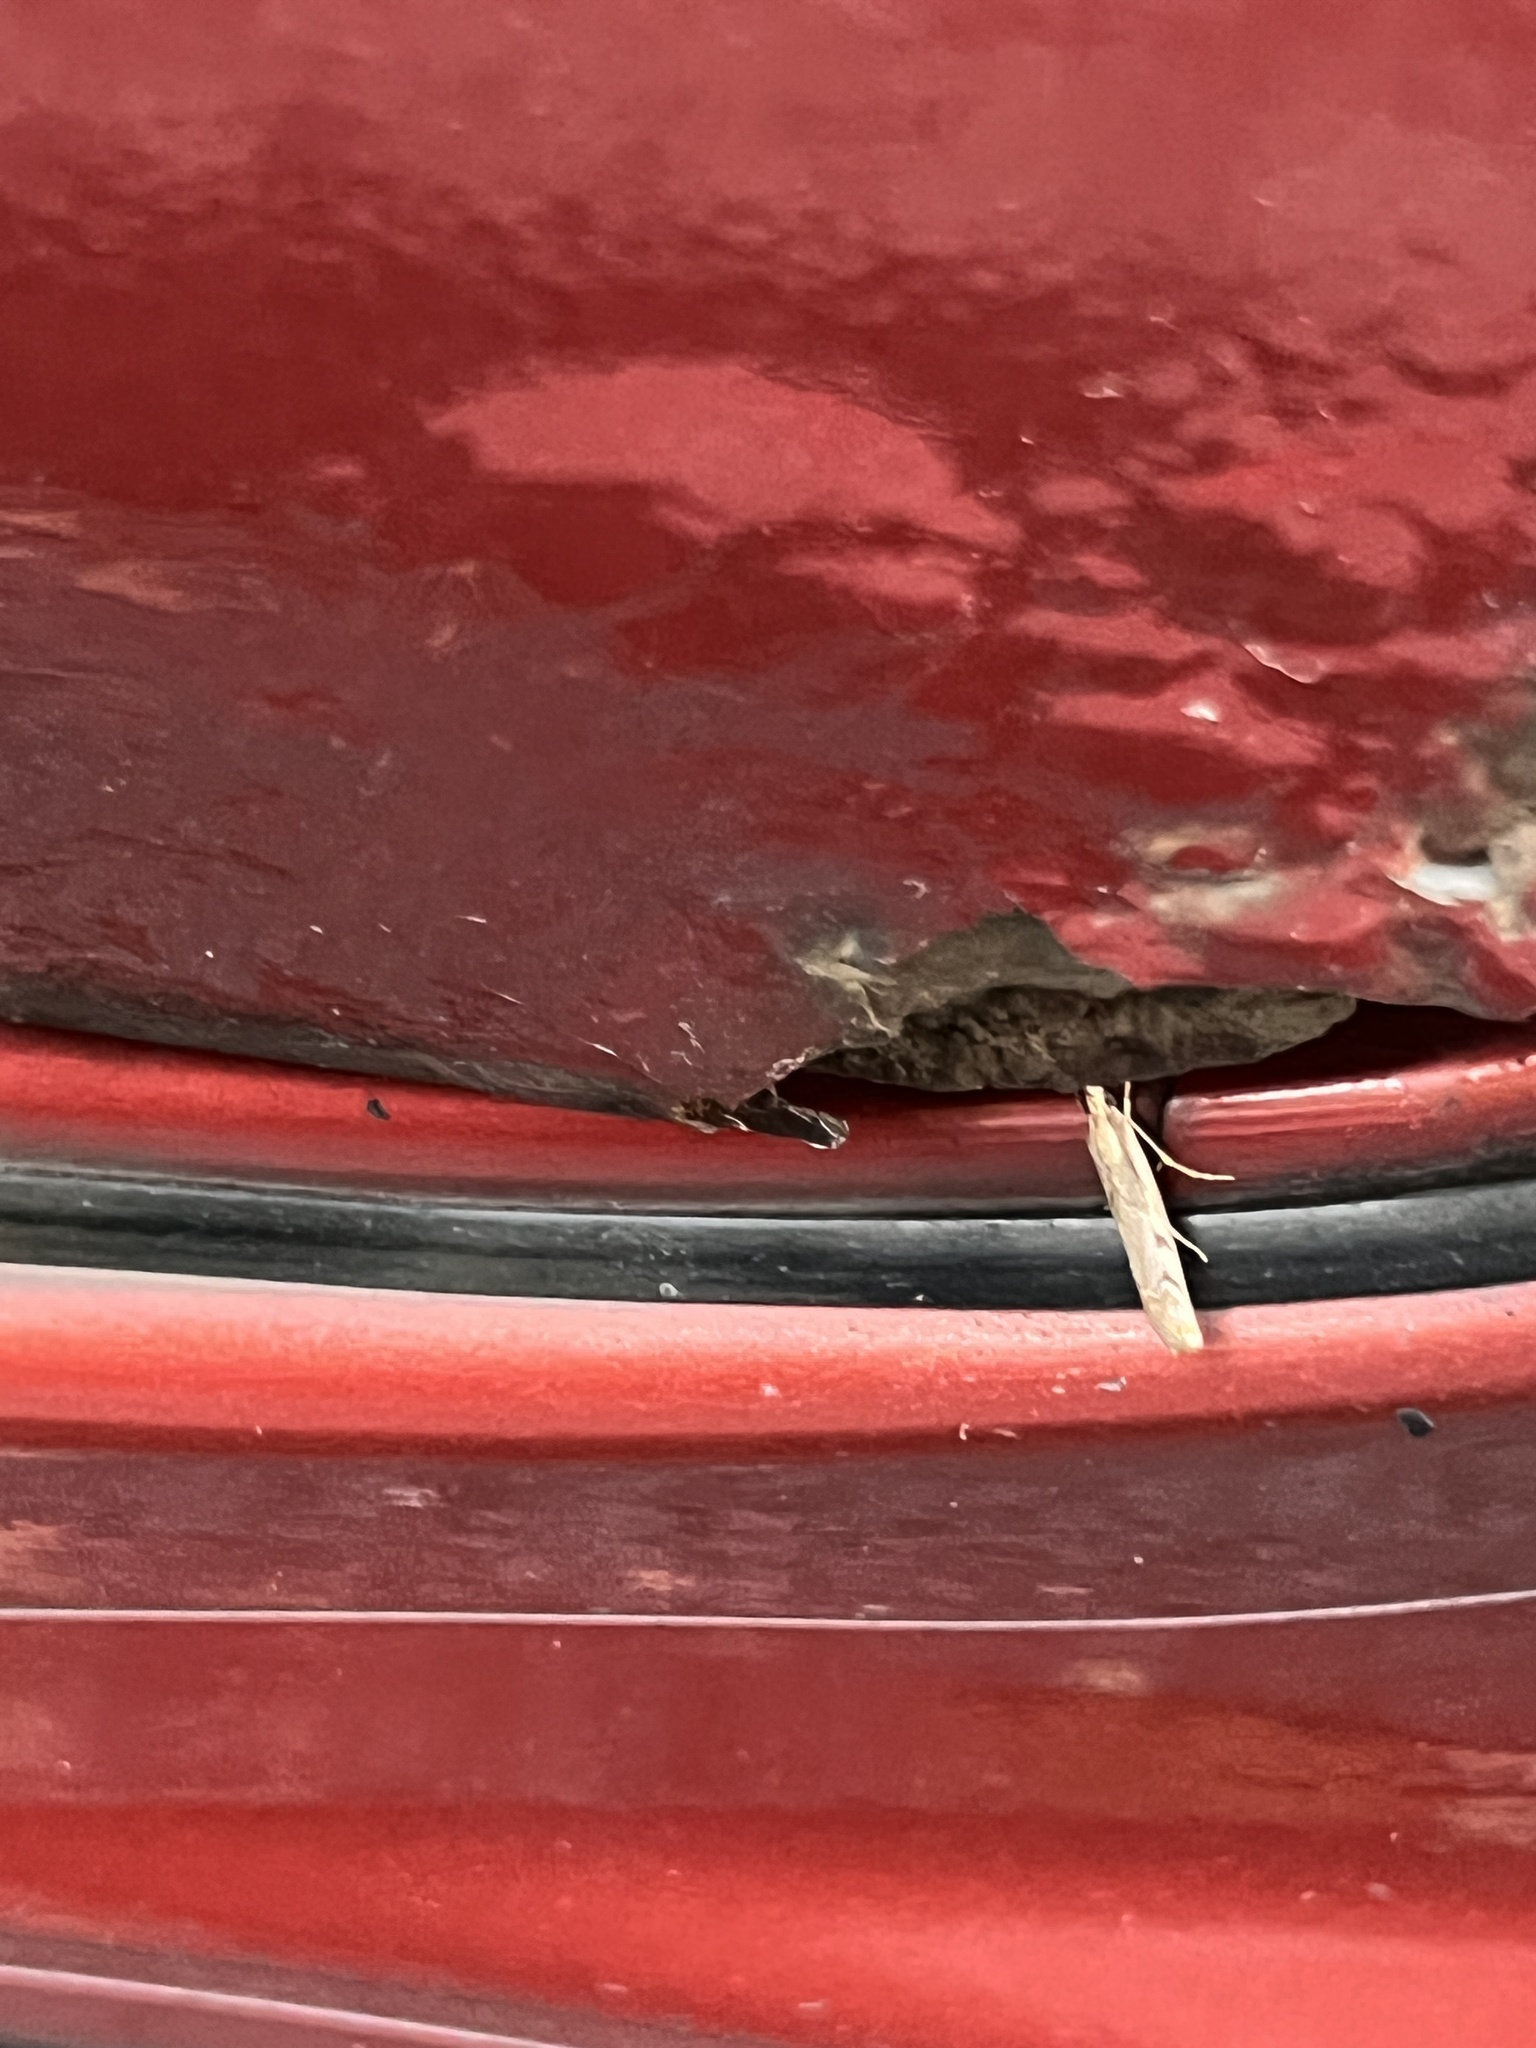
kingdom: Animalia
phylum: Arthropoda
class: Insecta
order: Lepidoptera
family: Crambidae
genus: Agriphila
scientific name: Agriphila geniculea
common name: Elbow-stripe grass-veneer
